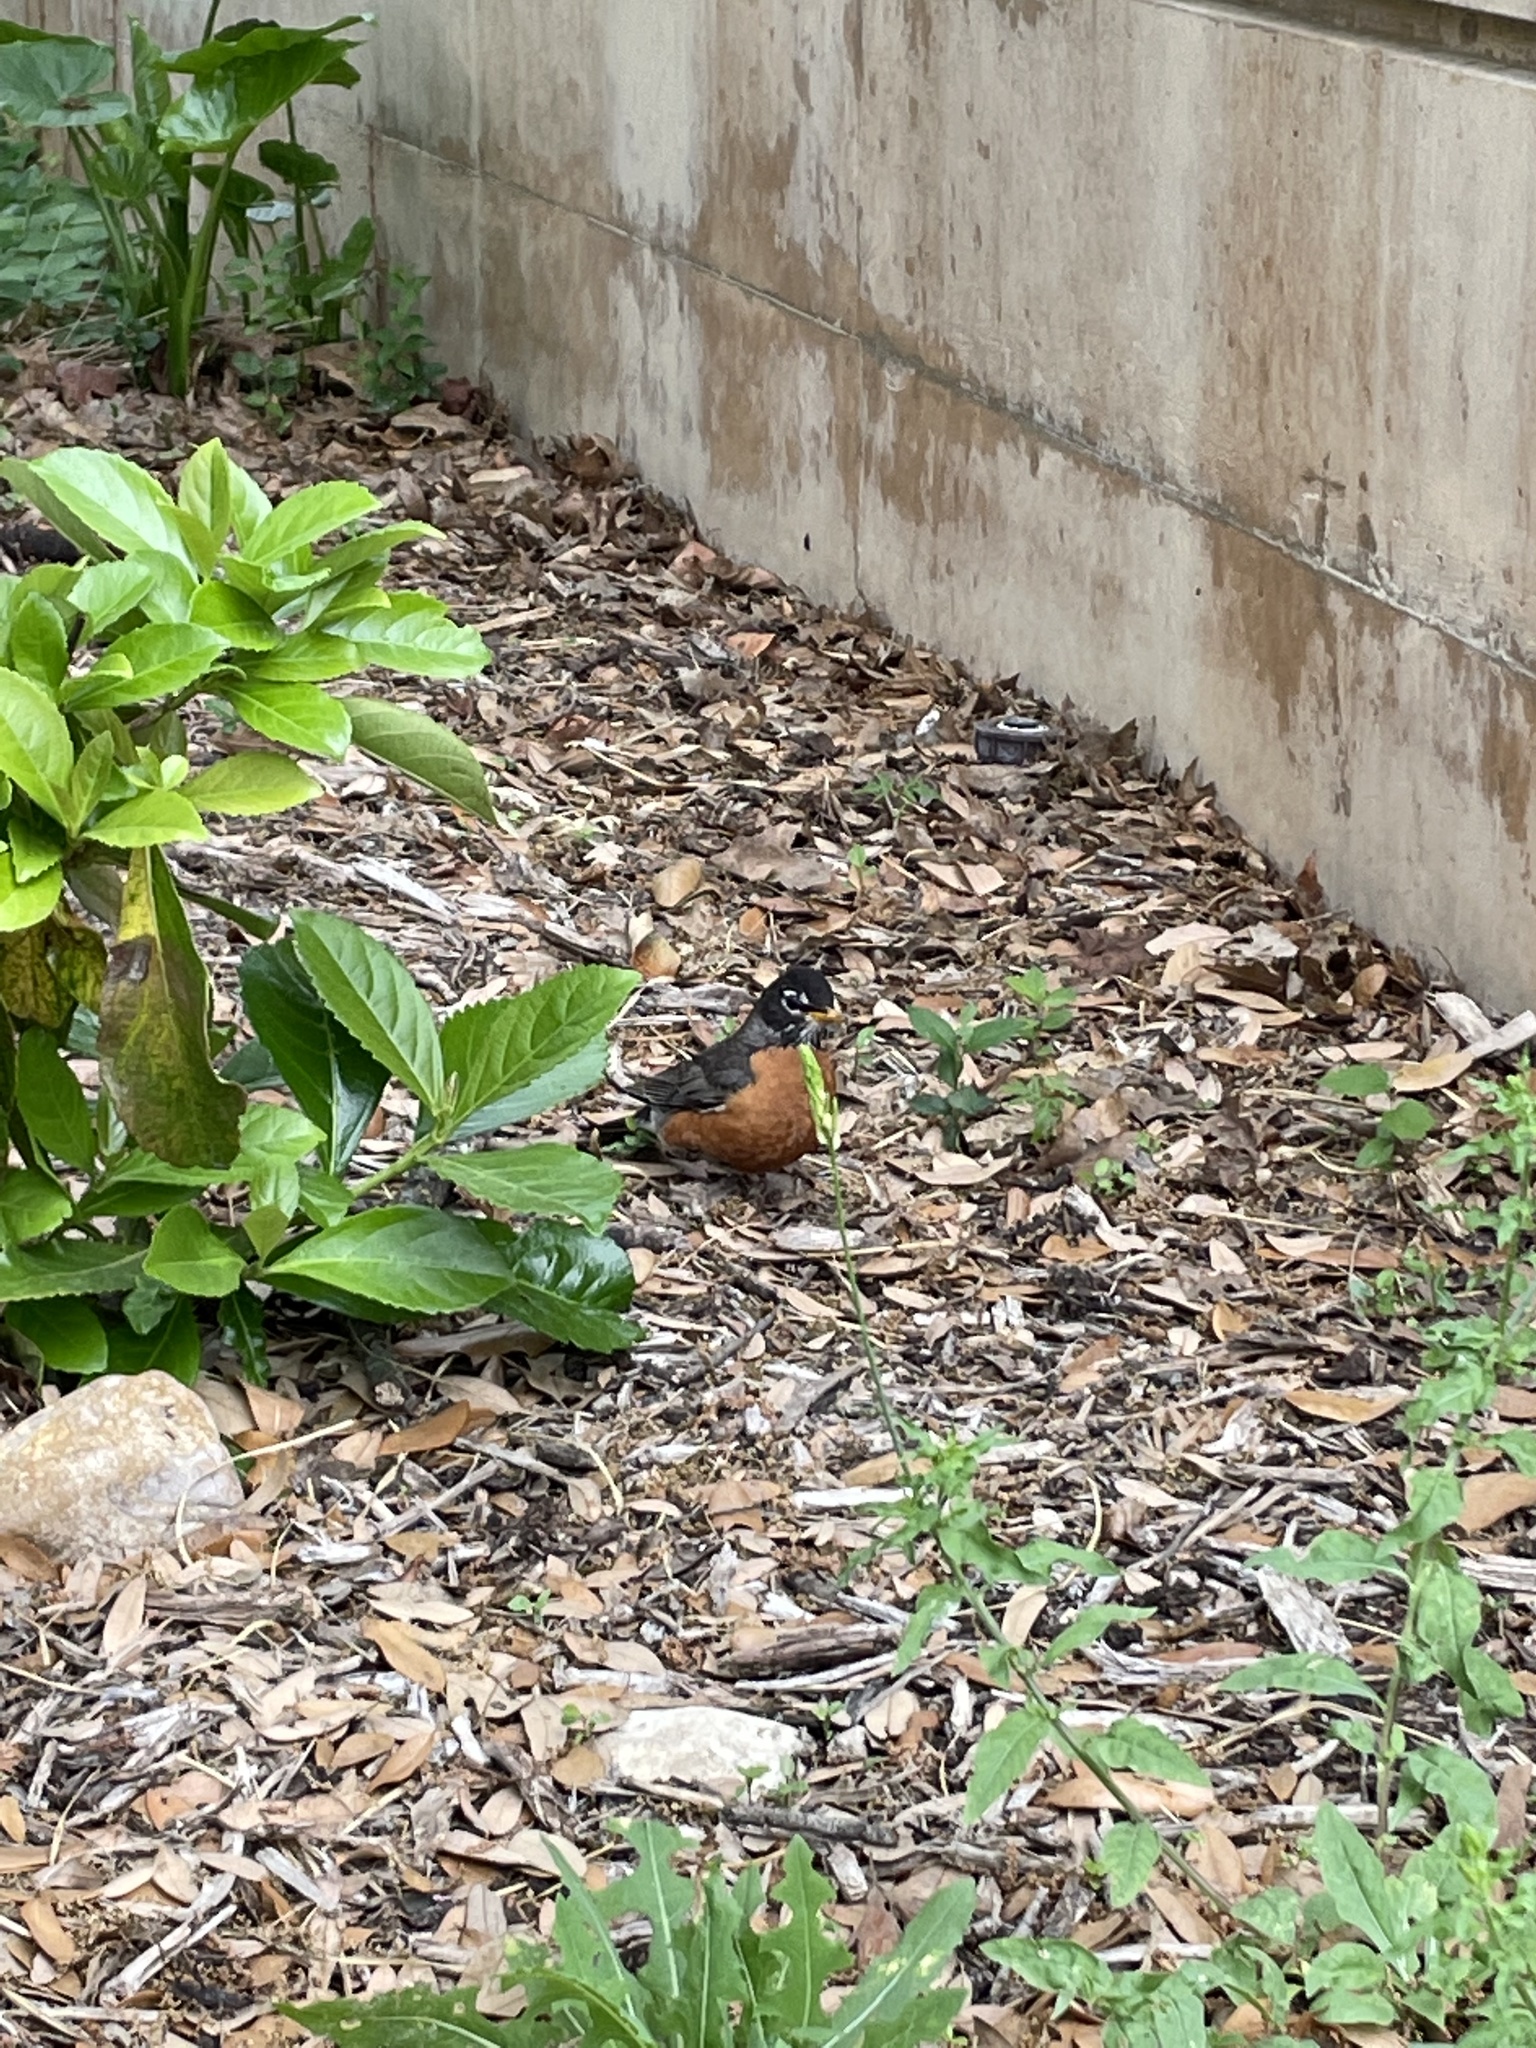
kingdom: Animalia
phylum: Chordata
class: Aves
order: Passeriformes
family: Turdidae
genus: Turdus
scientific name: Turdus migratorius
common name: American robin
